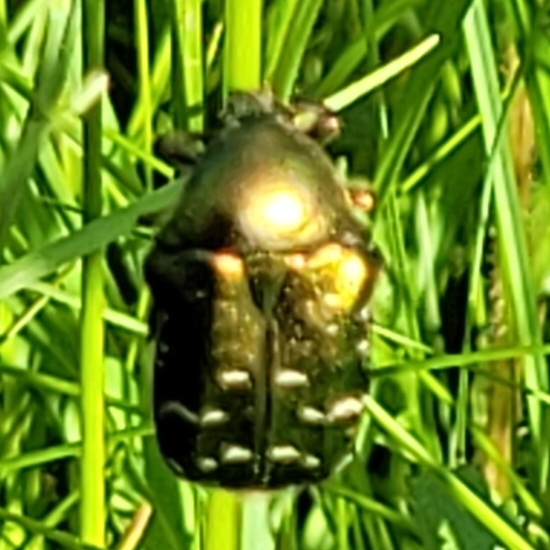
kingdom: Animalia
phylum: Arthropoda
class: Insecta
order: Coleoptera
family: Scarabaeidae
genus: Cetonia
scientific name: Cetonia aurata
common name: Rose chafer
